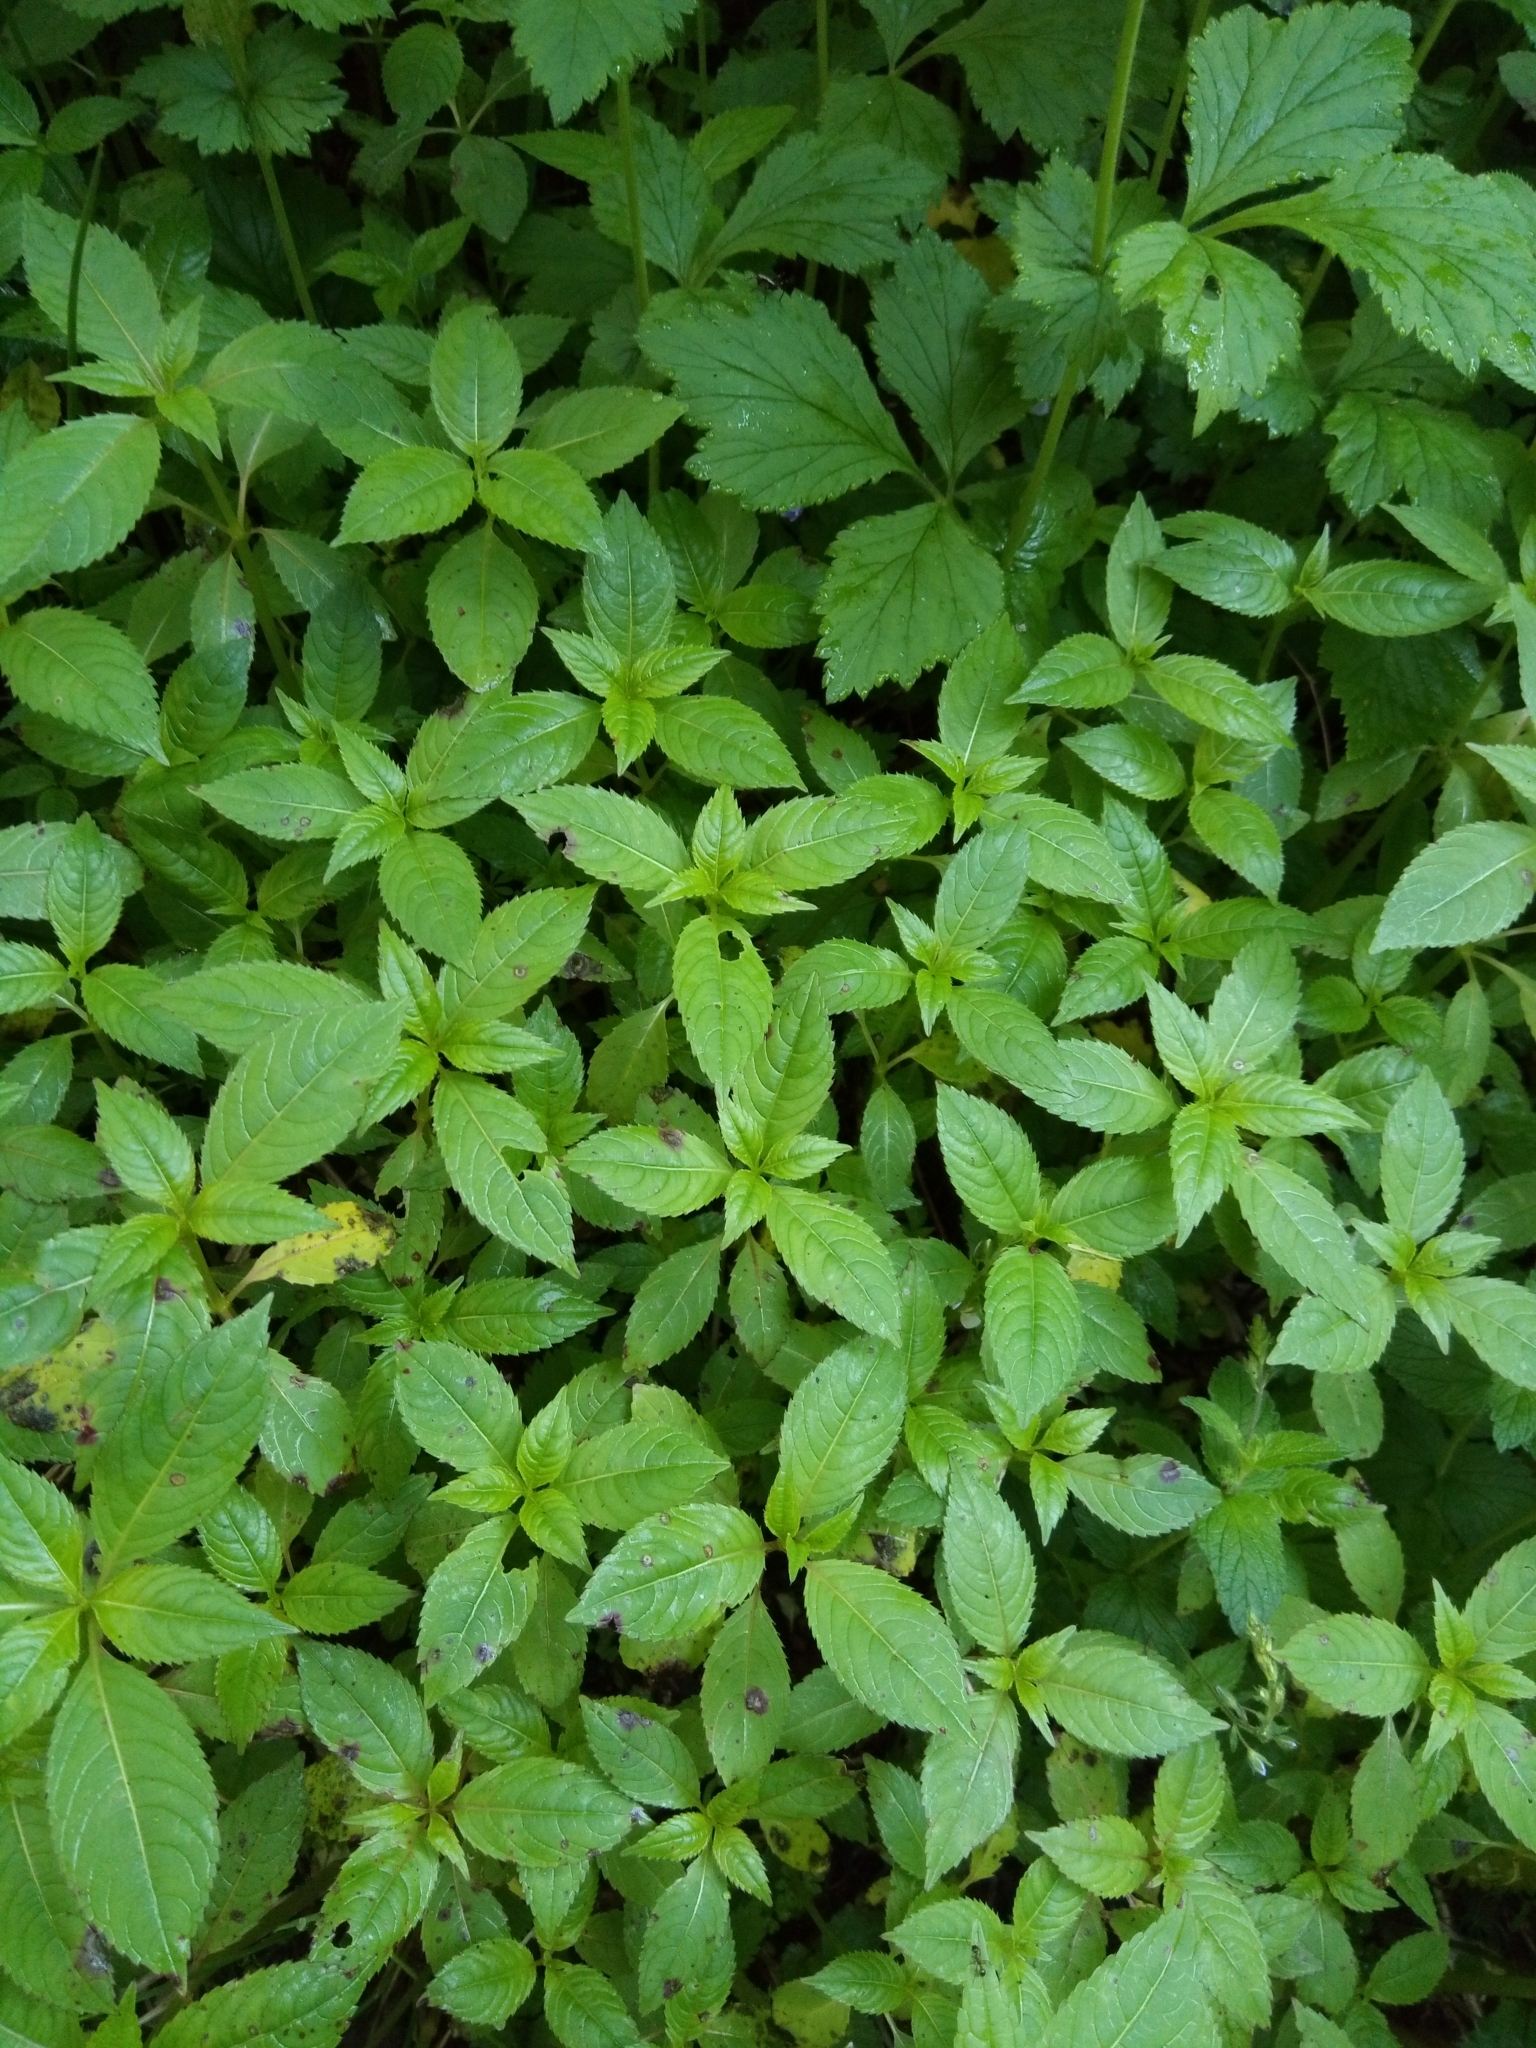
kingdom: Plantae
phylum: Tracheophyta
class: Magnoliopsida
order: Ericales
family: Balsaminaceae
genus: Impatiens
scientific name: Impatiens glandulifera
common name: Himalayan balsam
